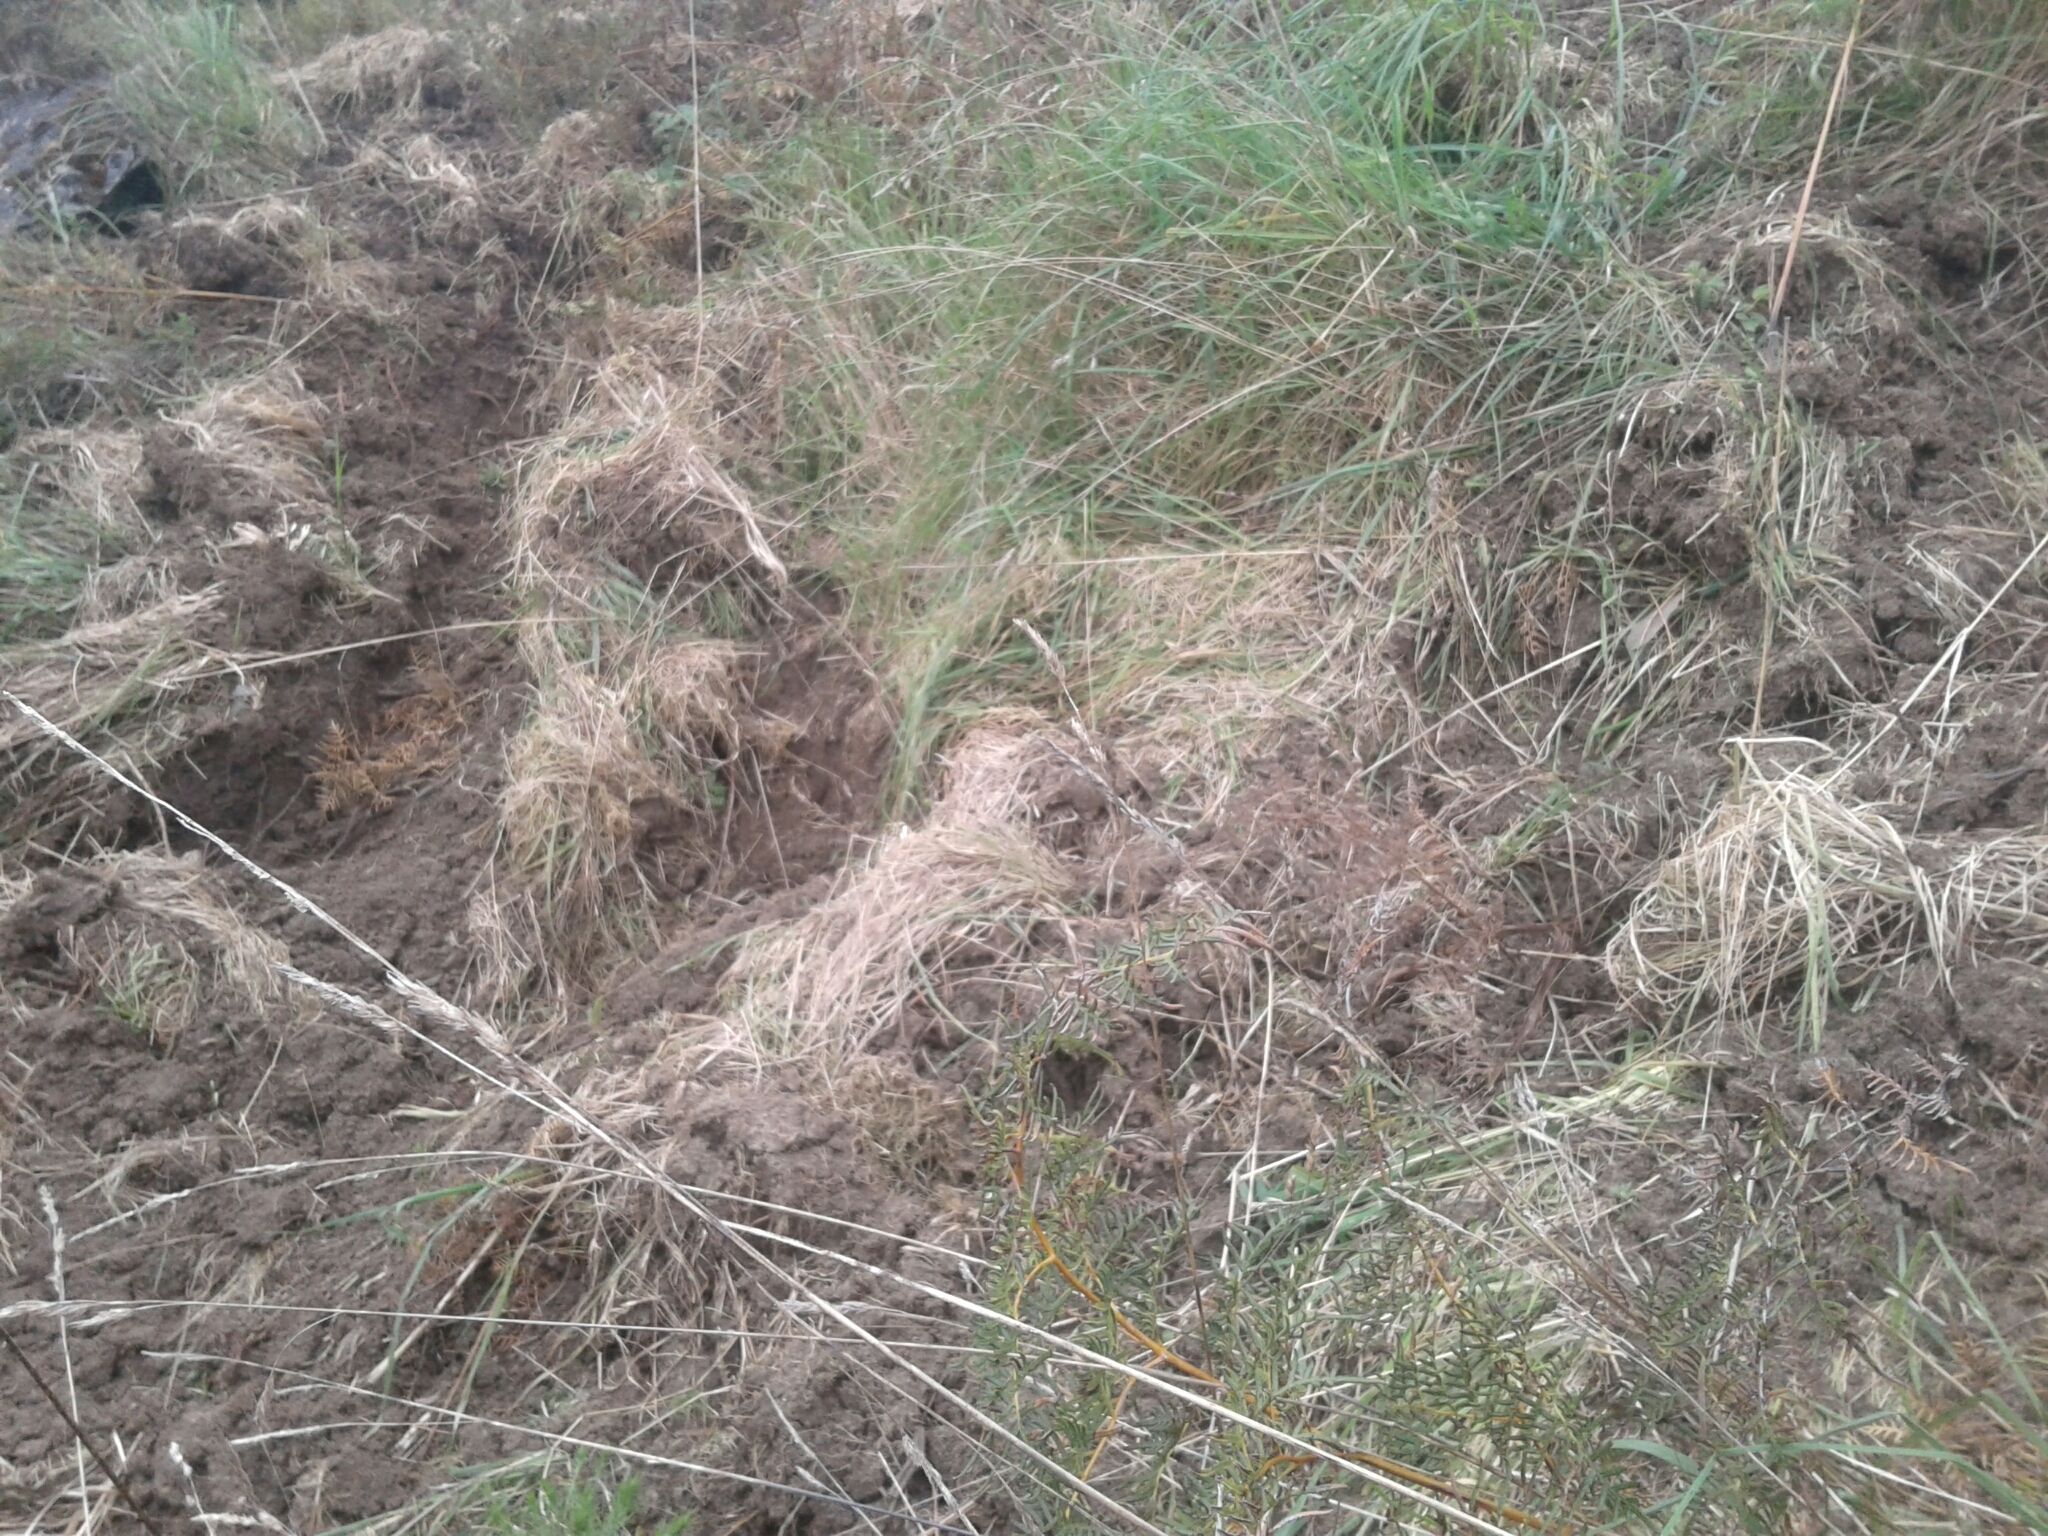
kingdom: Animalia
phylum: Chordata
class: Mammalia
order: Artiodactyla
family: Suidae
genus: Sus
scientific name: Sus scrofa
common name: Wild boar
